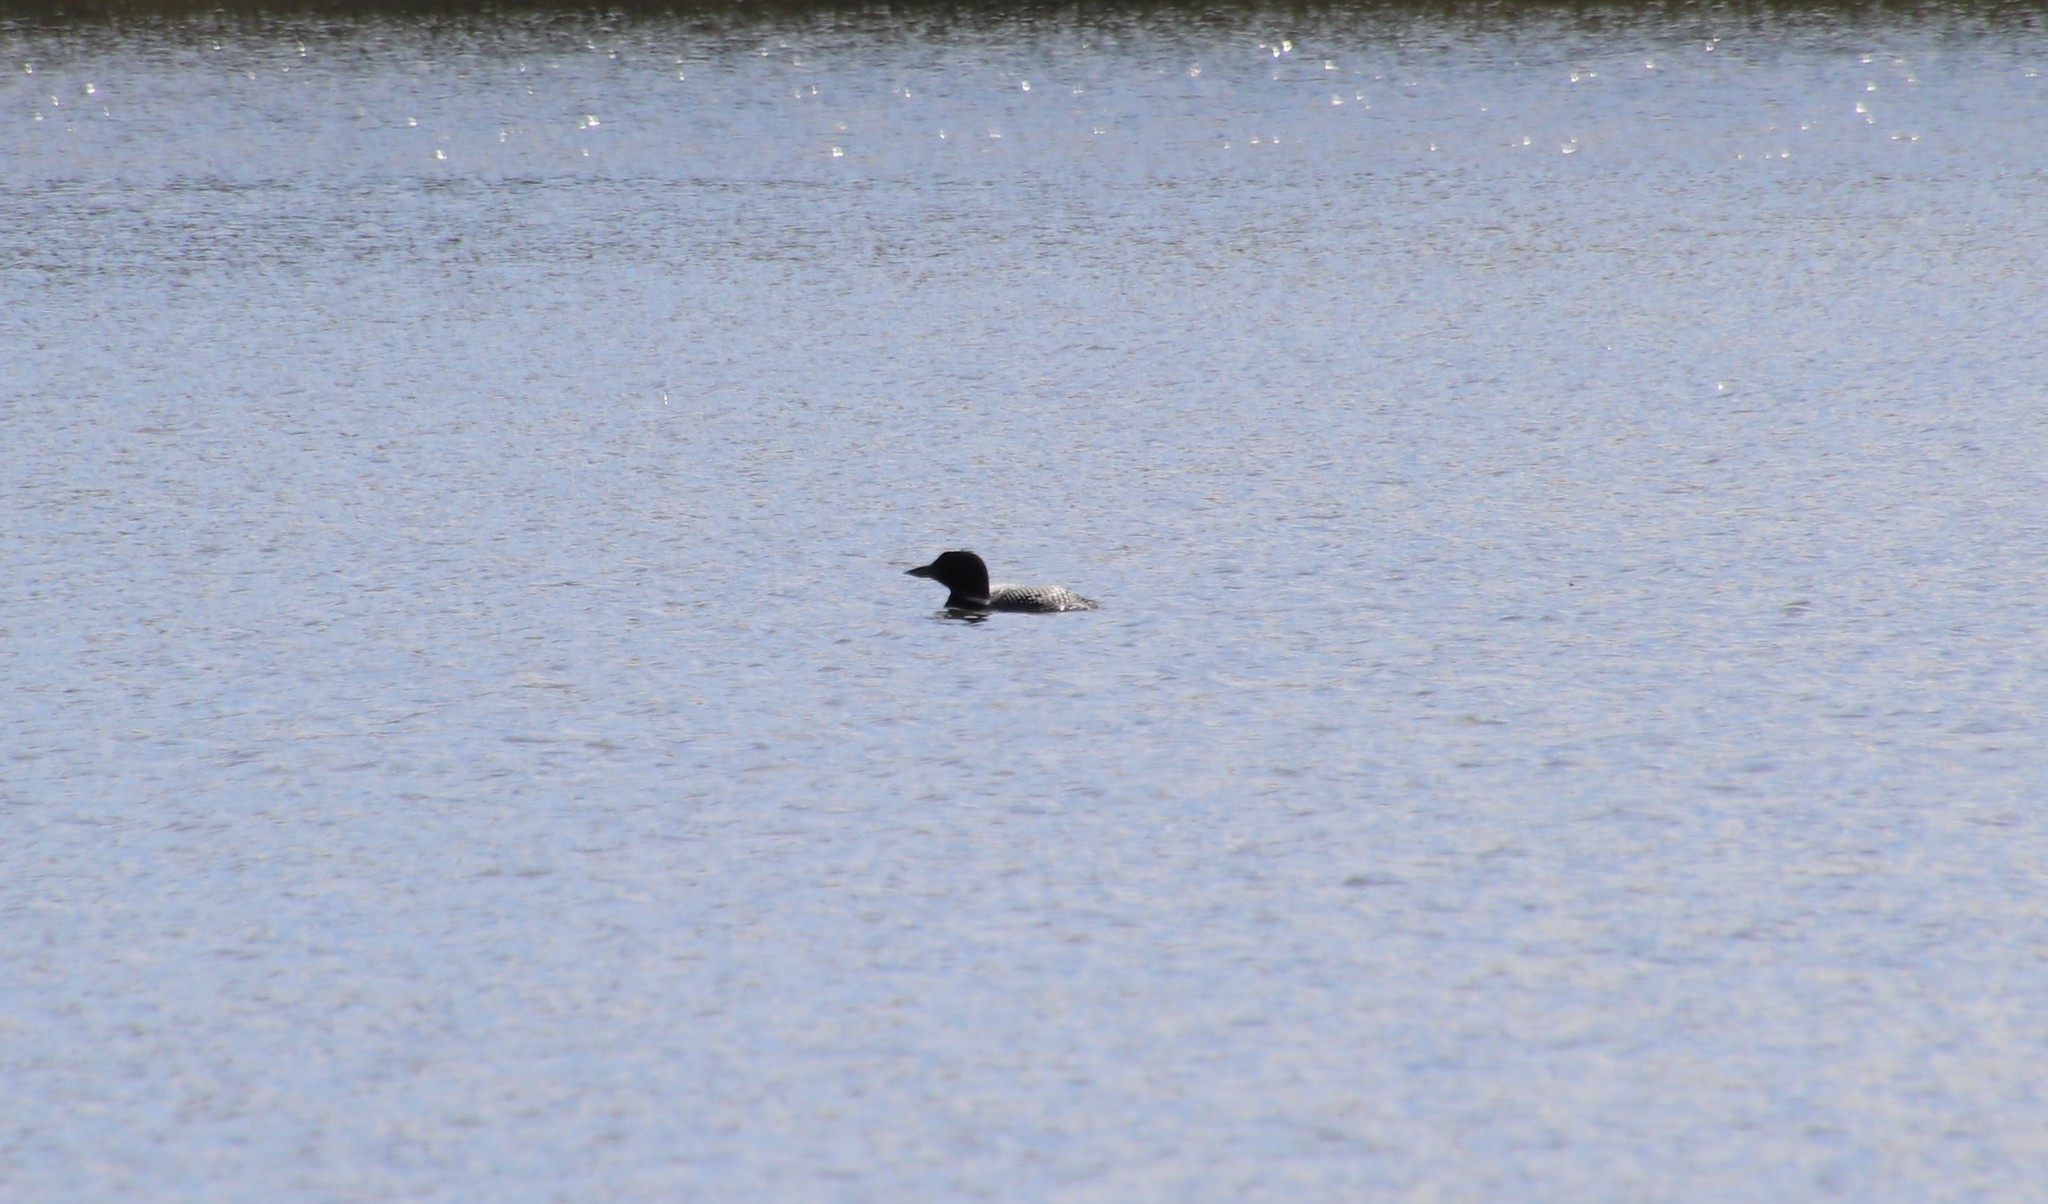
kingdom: Animalia
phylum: Chordata
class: Aves
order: Gaviiformes
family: Gaviidae
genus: Gavia
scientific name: Gavia immer
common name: Common loon
